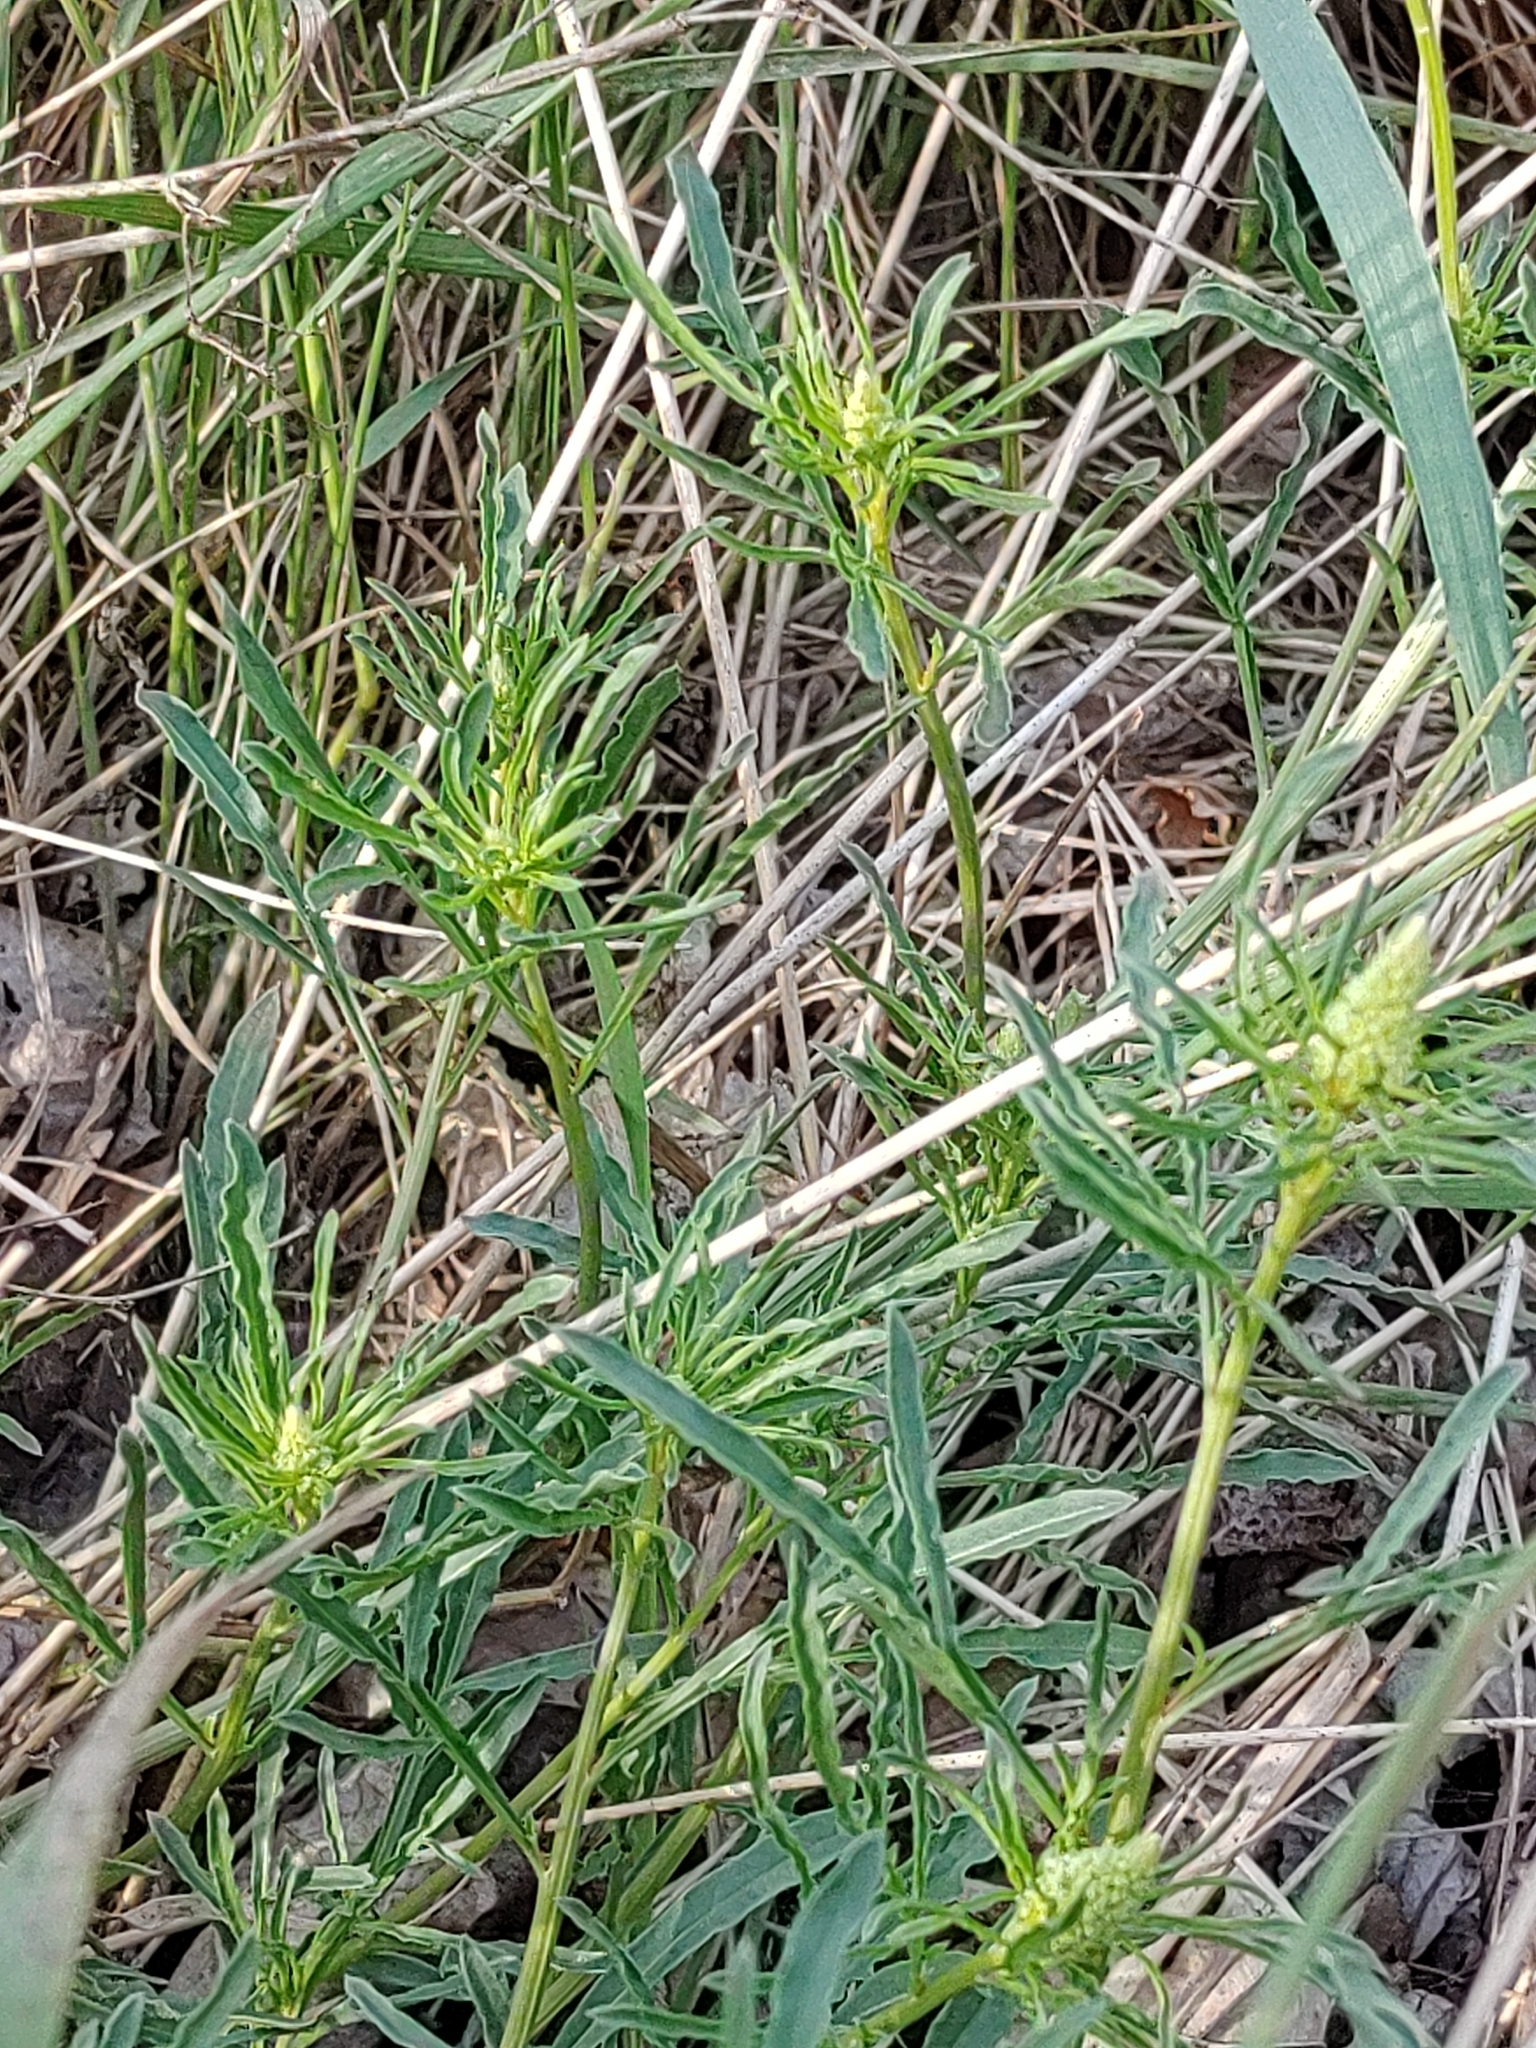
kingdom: Plantae
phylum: Tracheophyta
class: Magnoliopsida
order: Brassicales
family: Resedaceae
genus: Reseda
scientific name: Reseda lutea
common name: Wild mignonette
